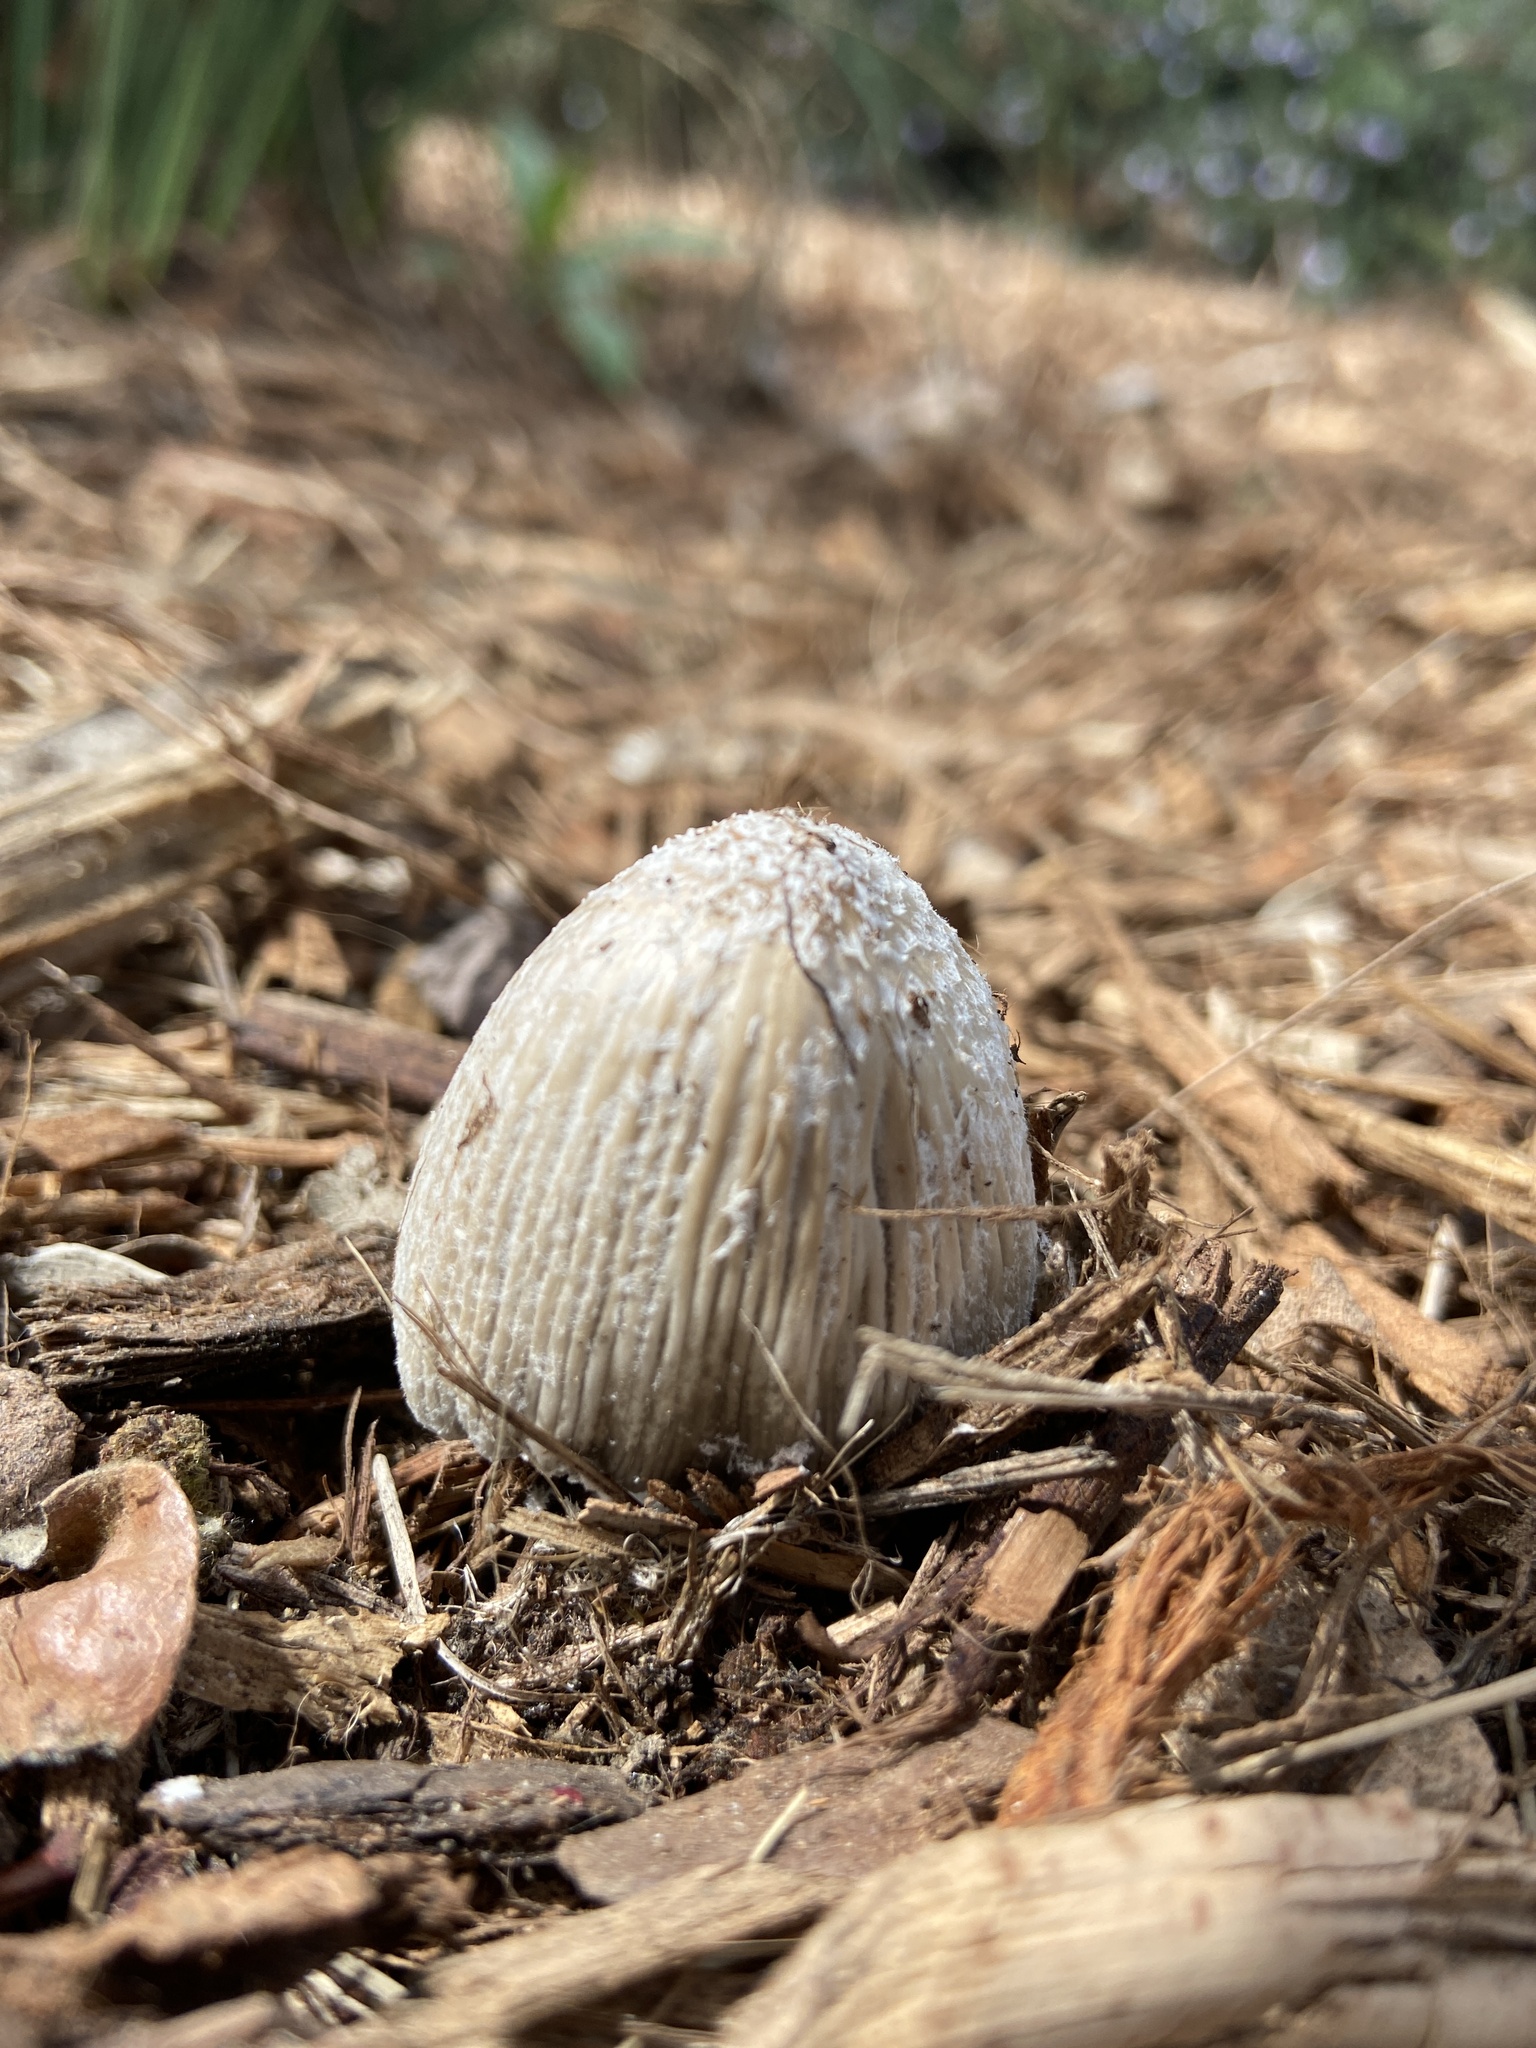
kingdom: Fungi
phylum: Basidiomycota
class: Agaricomycetes
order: Agaricales
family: Psathyrellaceae
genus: Coprinellus
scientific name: Coprinellus flocculosus
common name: Flocculose inkcap
